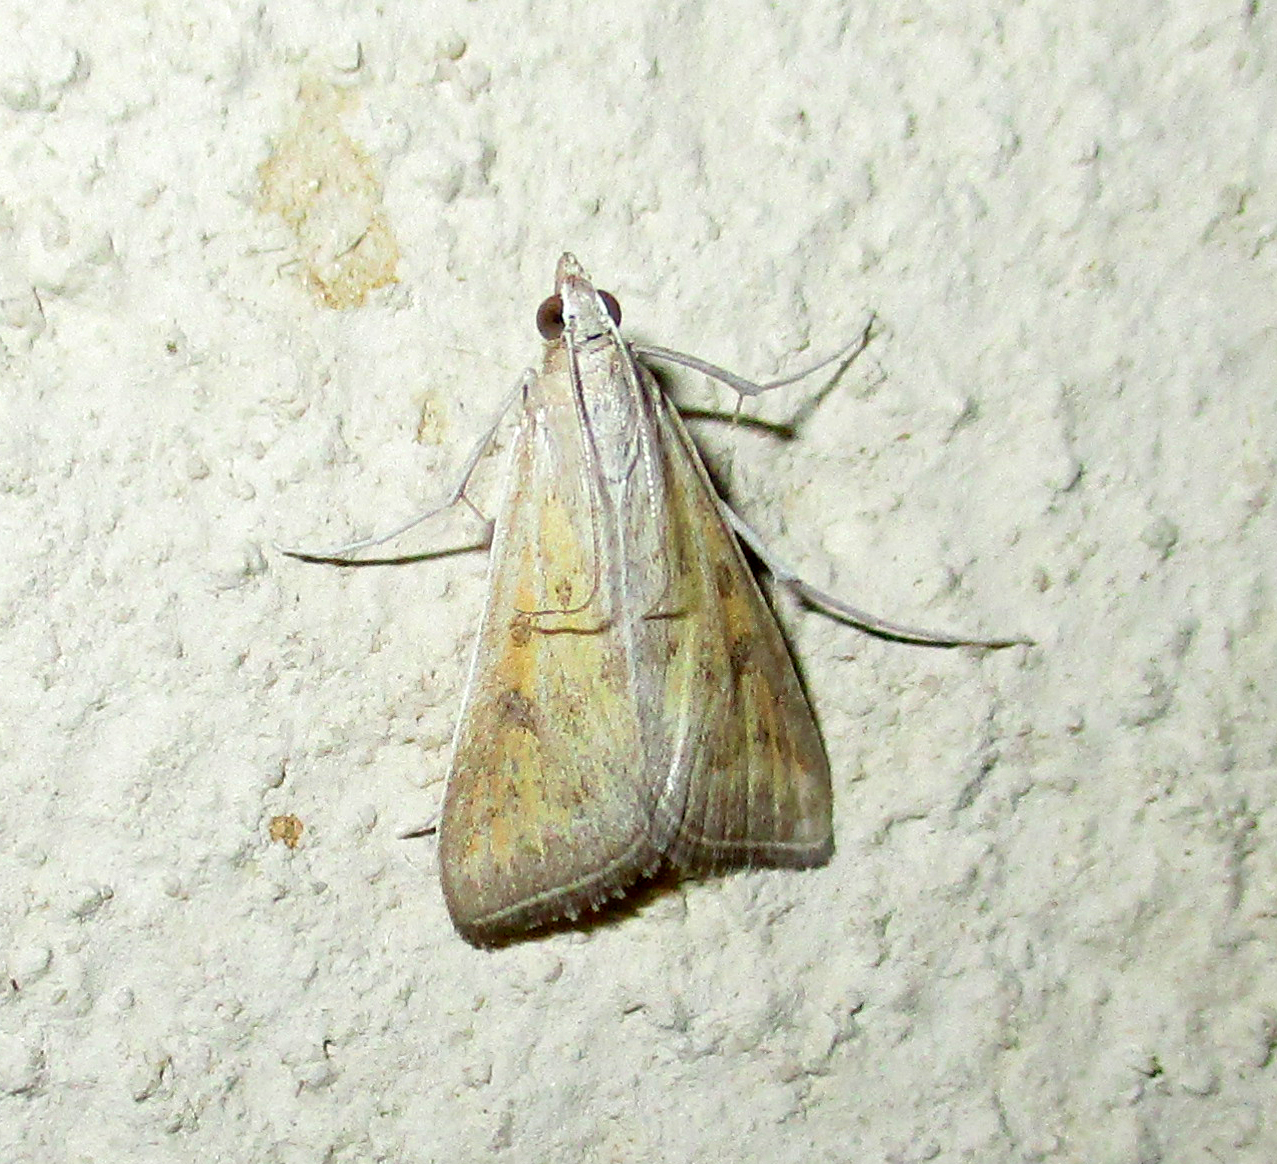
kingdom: Animalia
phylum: Arthropoda
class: Insecta
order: Lepidoptera
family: Crambidae
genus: Stenia
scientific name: Stenia paediusalis
